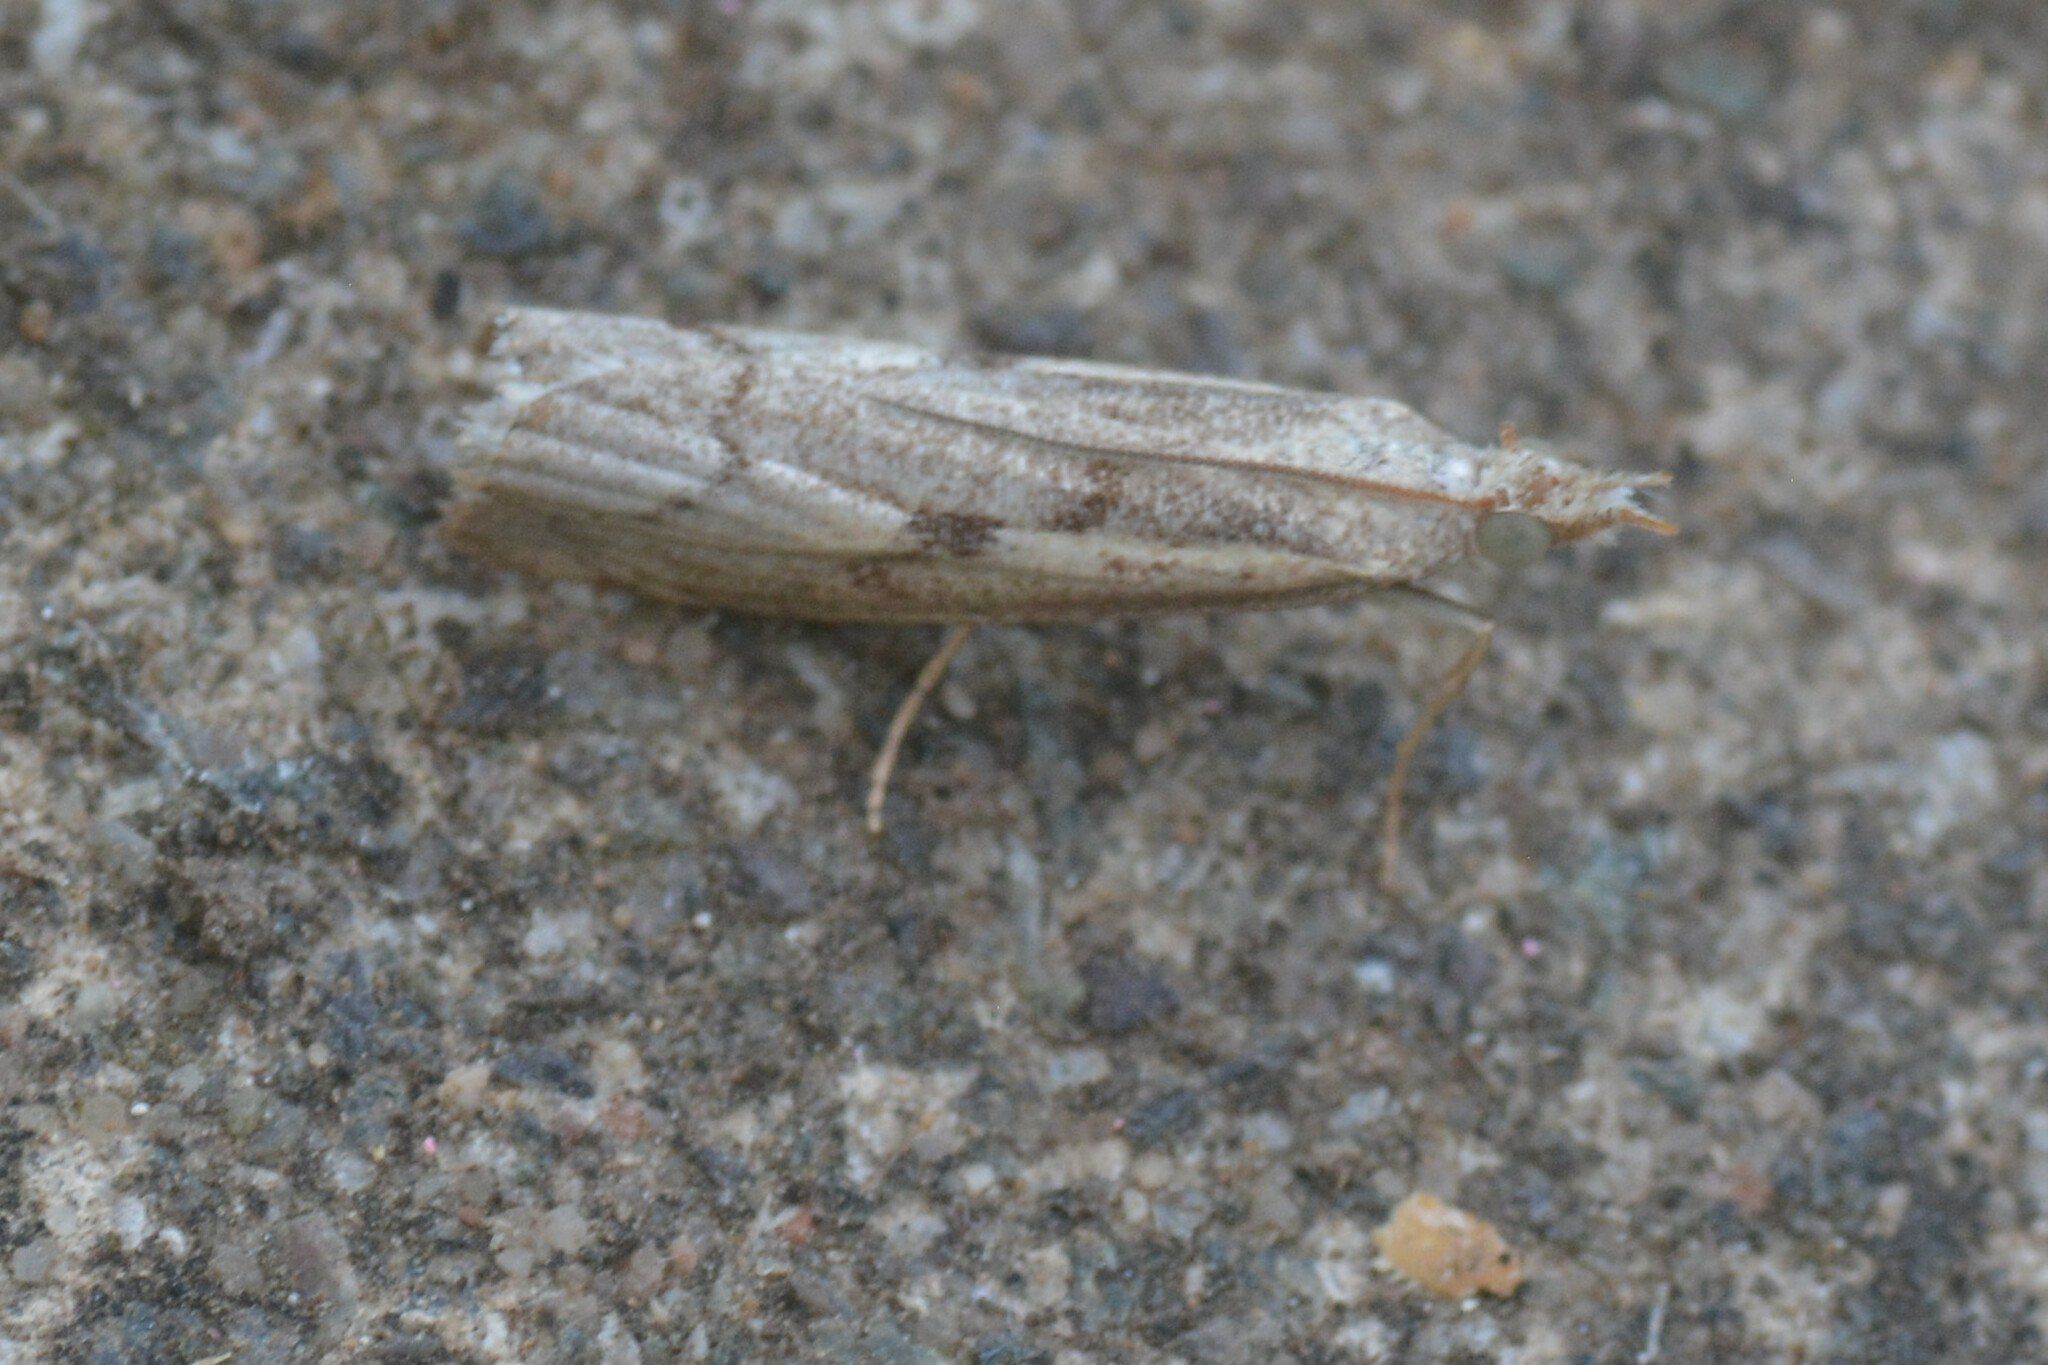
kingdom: Animalia
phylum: Arthropoda
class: Insecta
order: Lepidoptera
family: Crambidae
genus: Agriphila
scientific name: Agriphila geniculea
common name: Elbow-stripe grass-veneer
